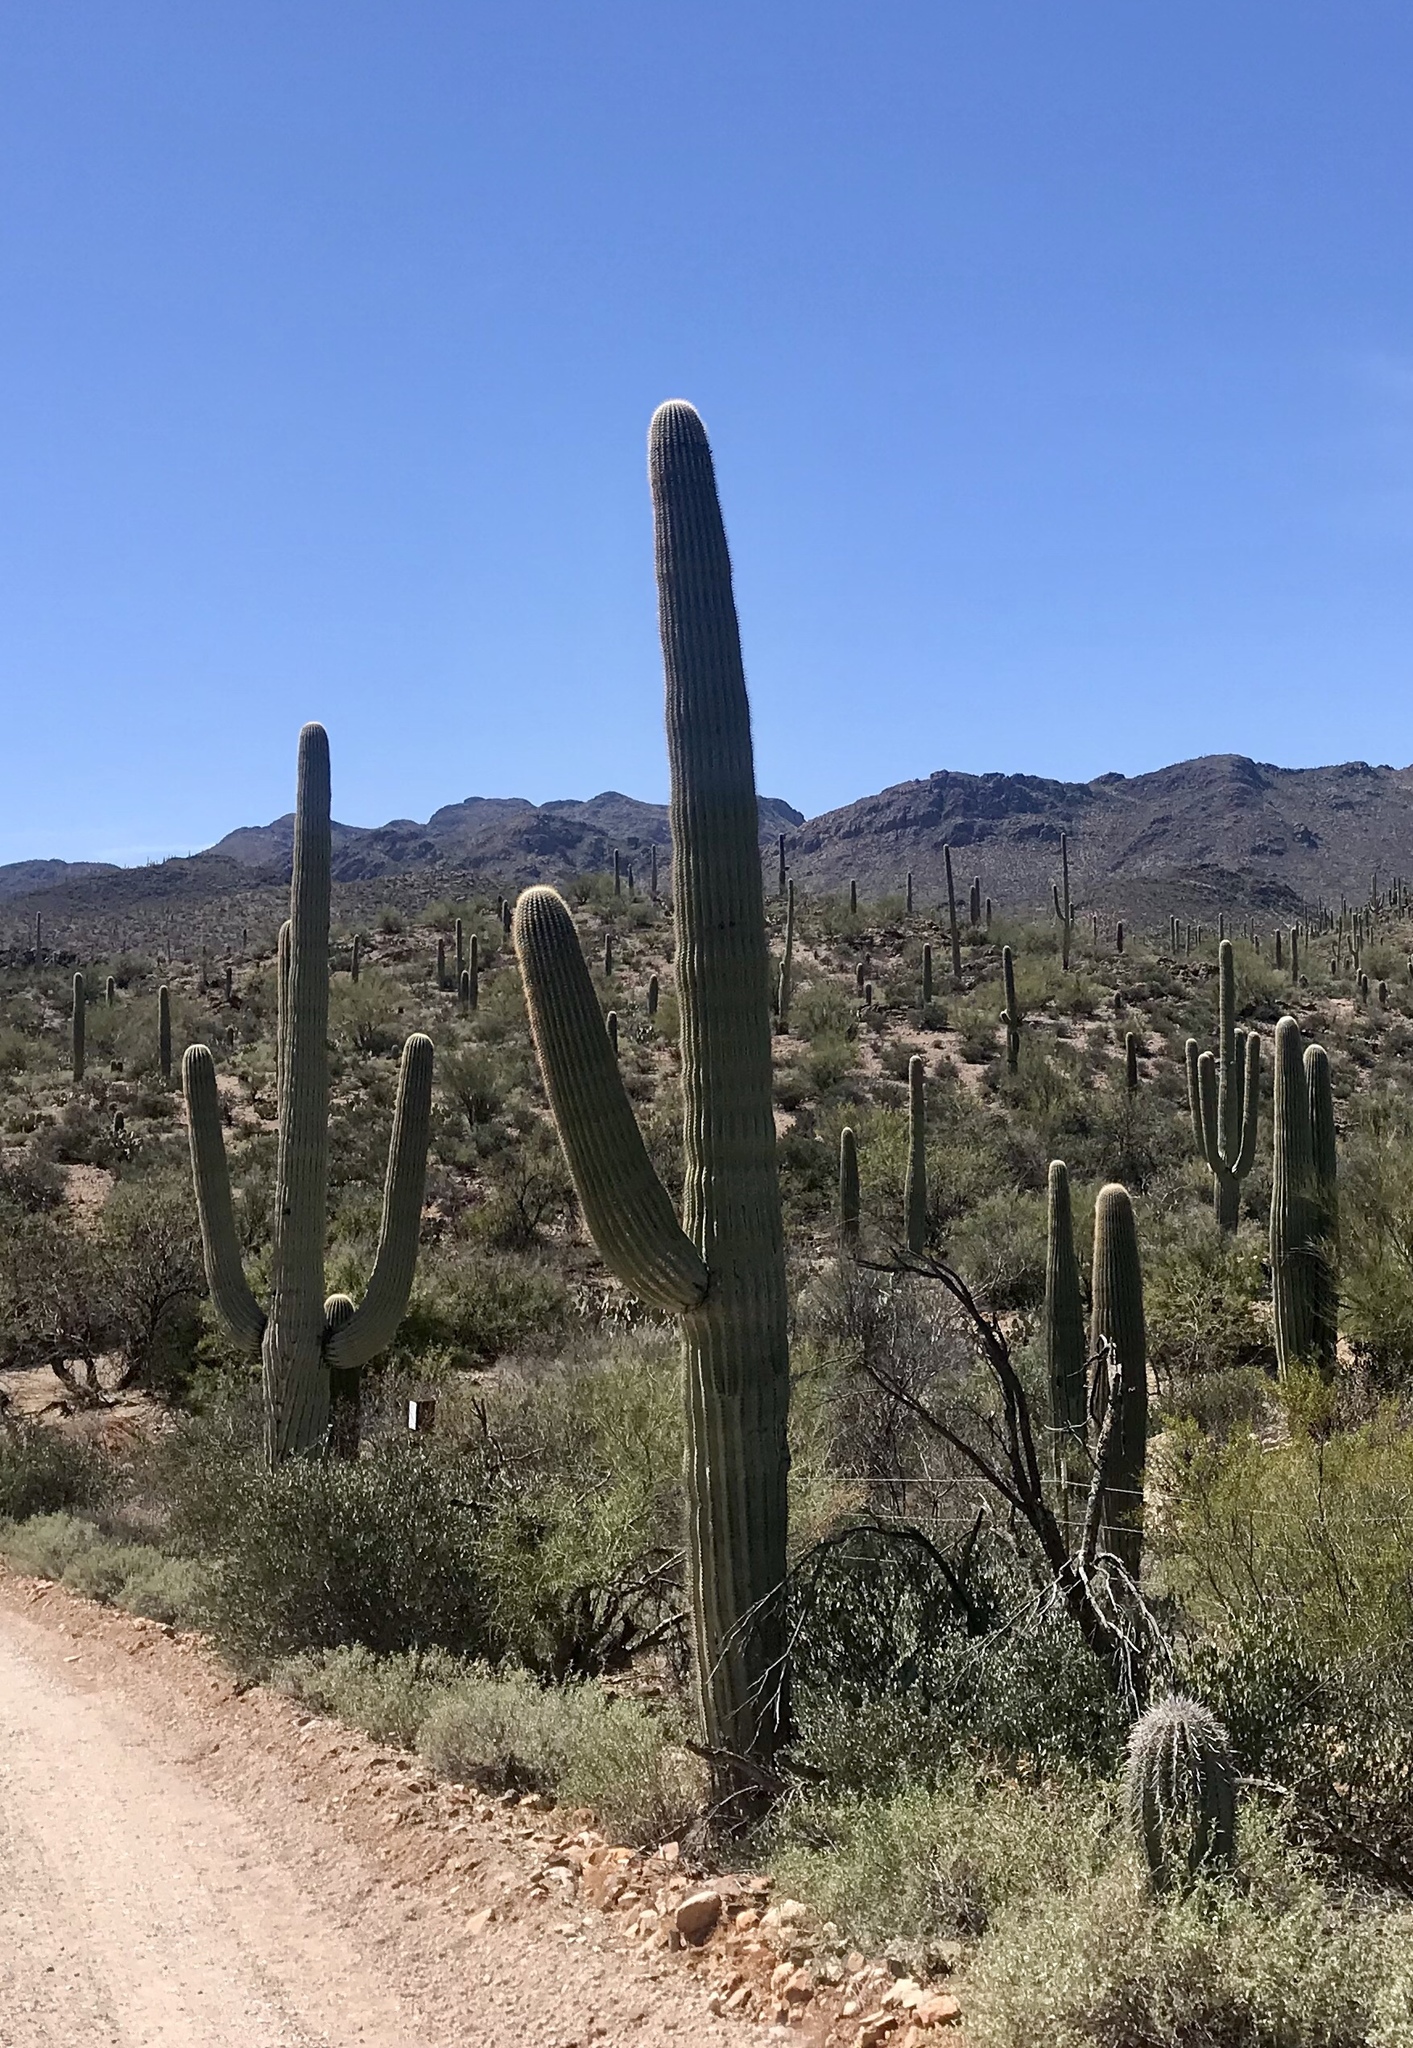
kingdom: Plantae
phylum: Tracheophyta
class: Magnoliopsida
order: Caryophyllales
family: Cactaceae
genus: Carnegiea
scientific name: Carnegiea gigantea
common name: Saguaro
